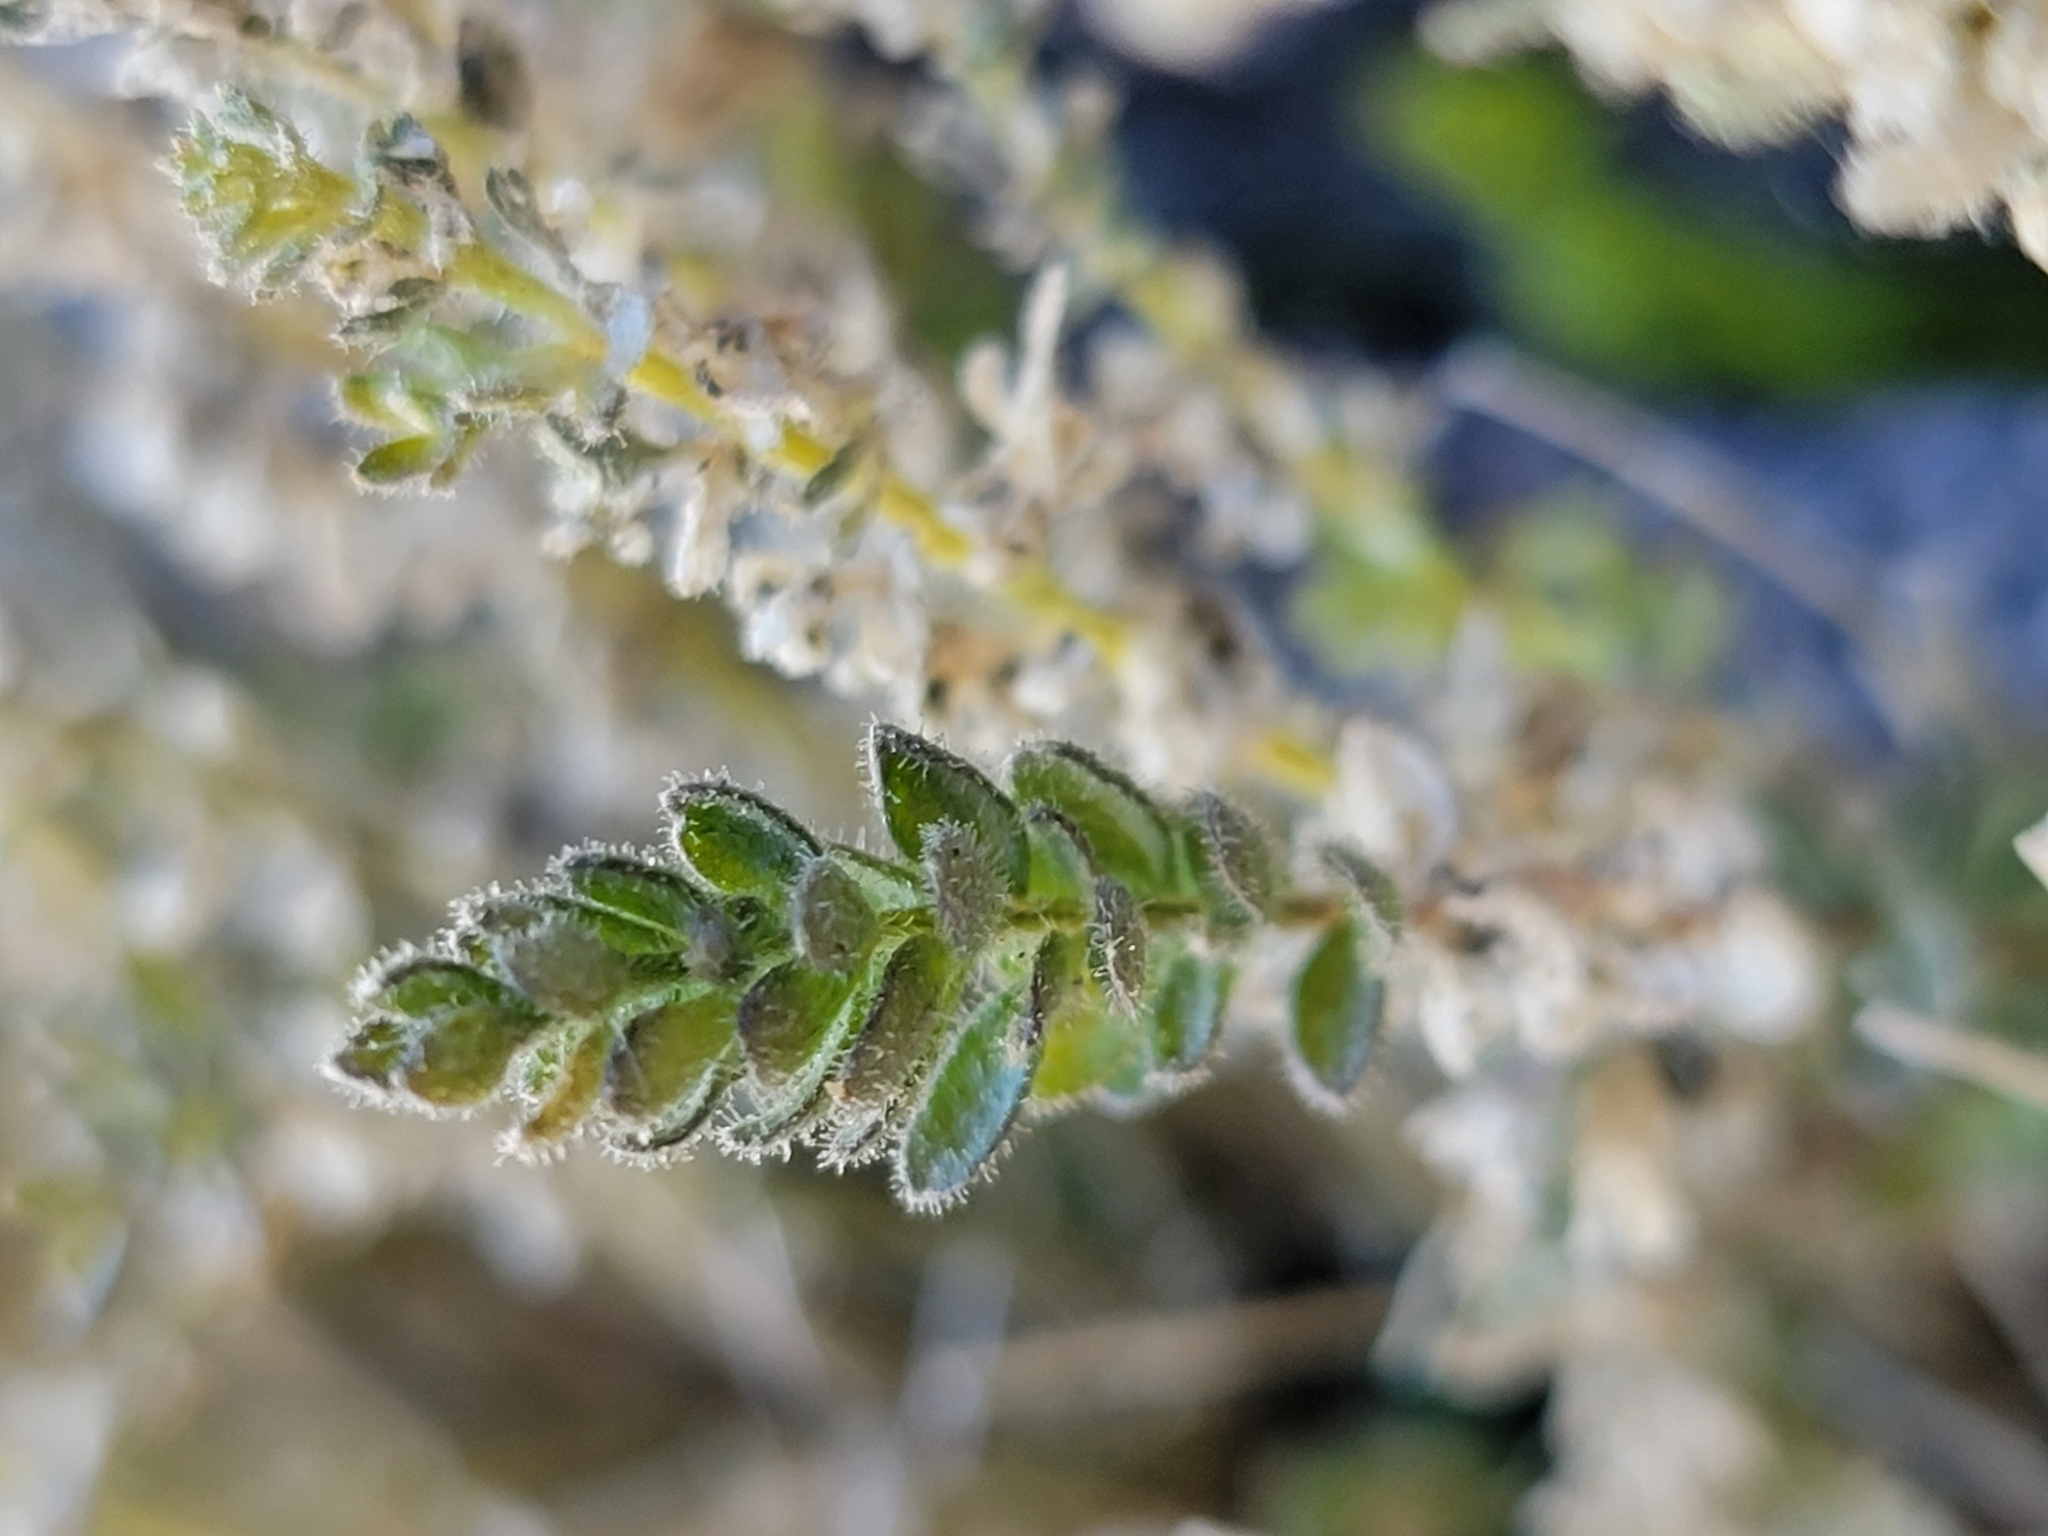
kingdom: Plantae
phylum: Tracheophyta
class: Magnoliopsida
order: Ericales
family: Polemoniaceae
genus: Polemonium
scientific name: Polemonium eximium
